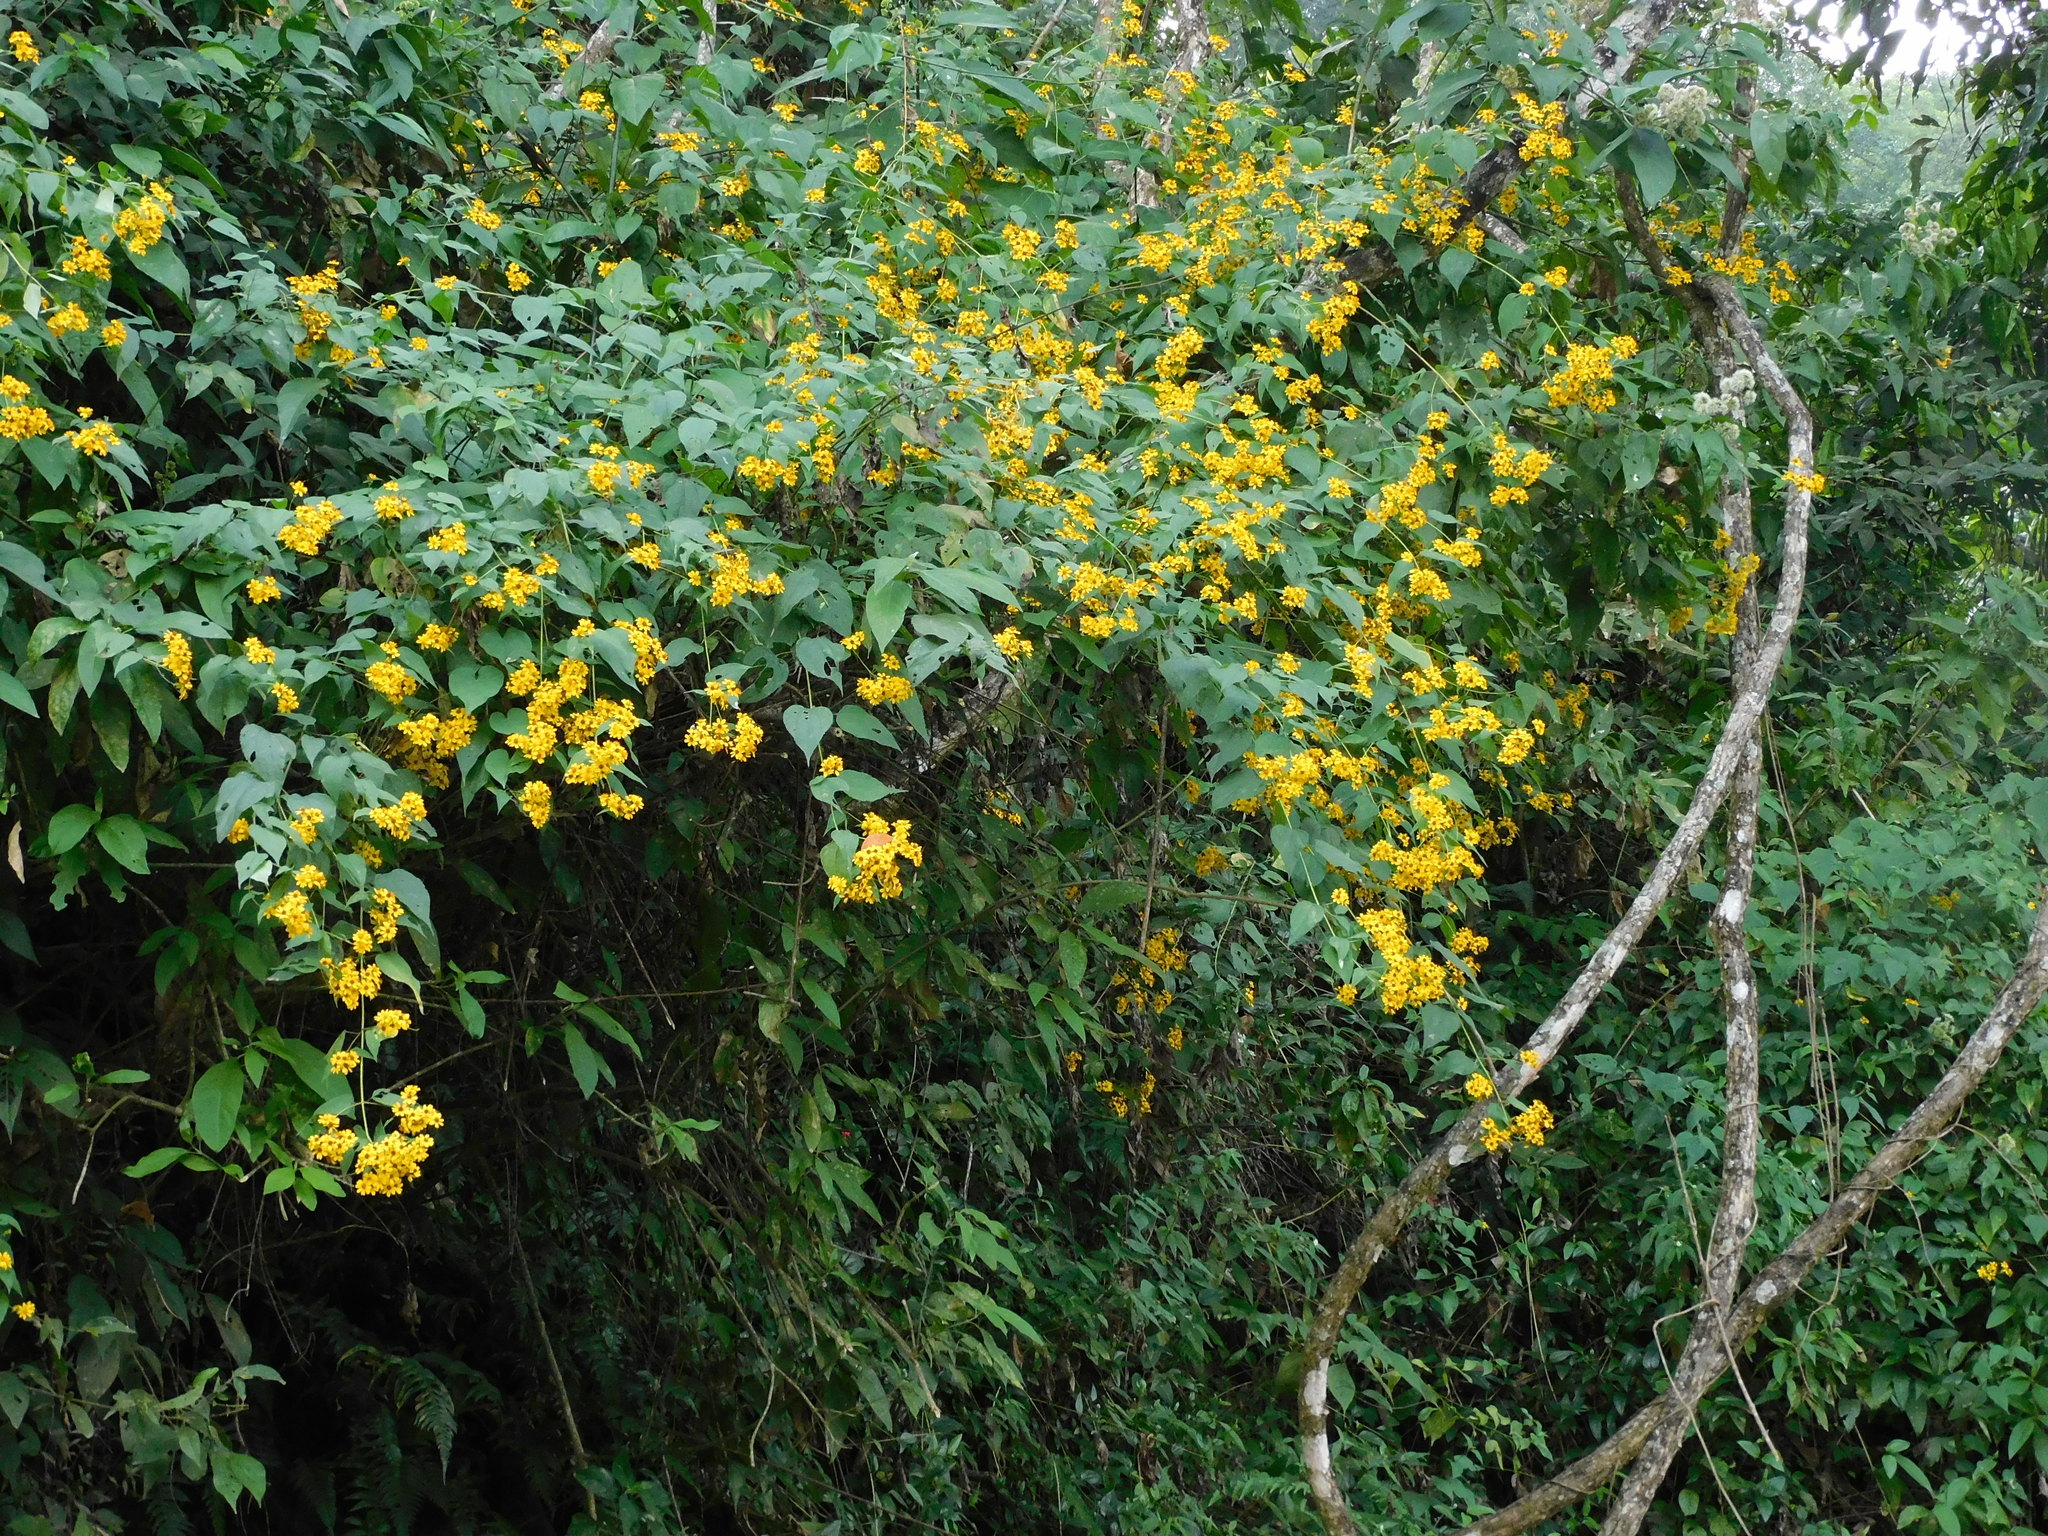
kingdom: Plantae
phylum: Tracheophyta
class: Magnoliopsida
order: Asterales
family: Asteraceae
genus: Tilesia
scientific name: Tilesia baccata
